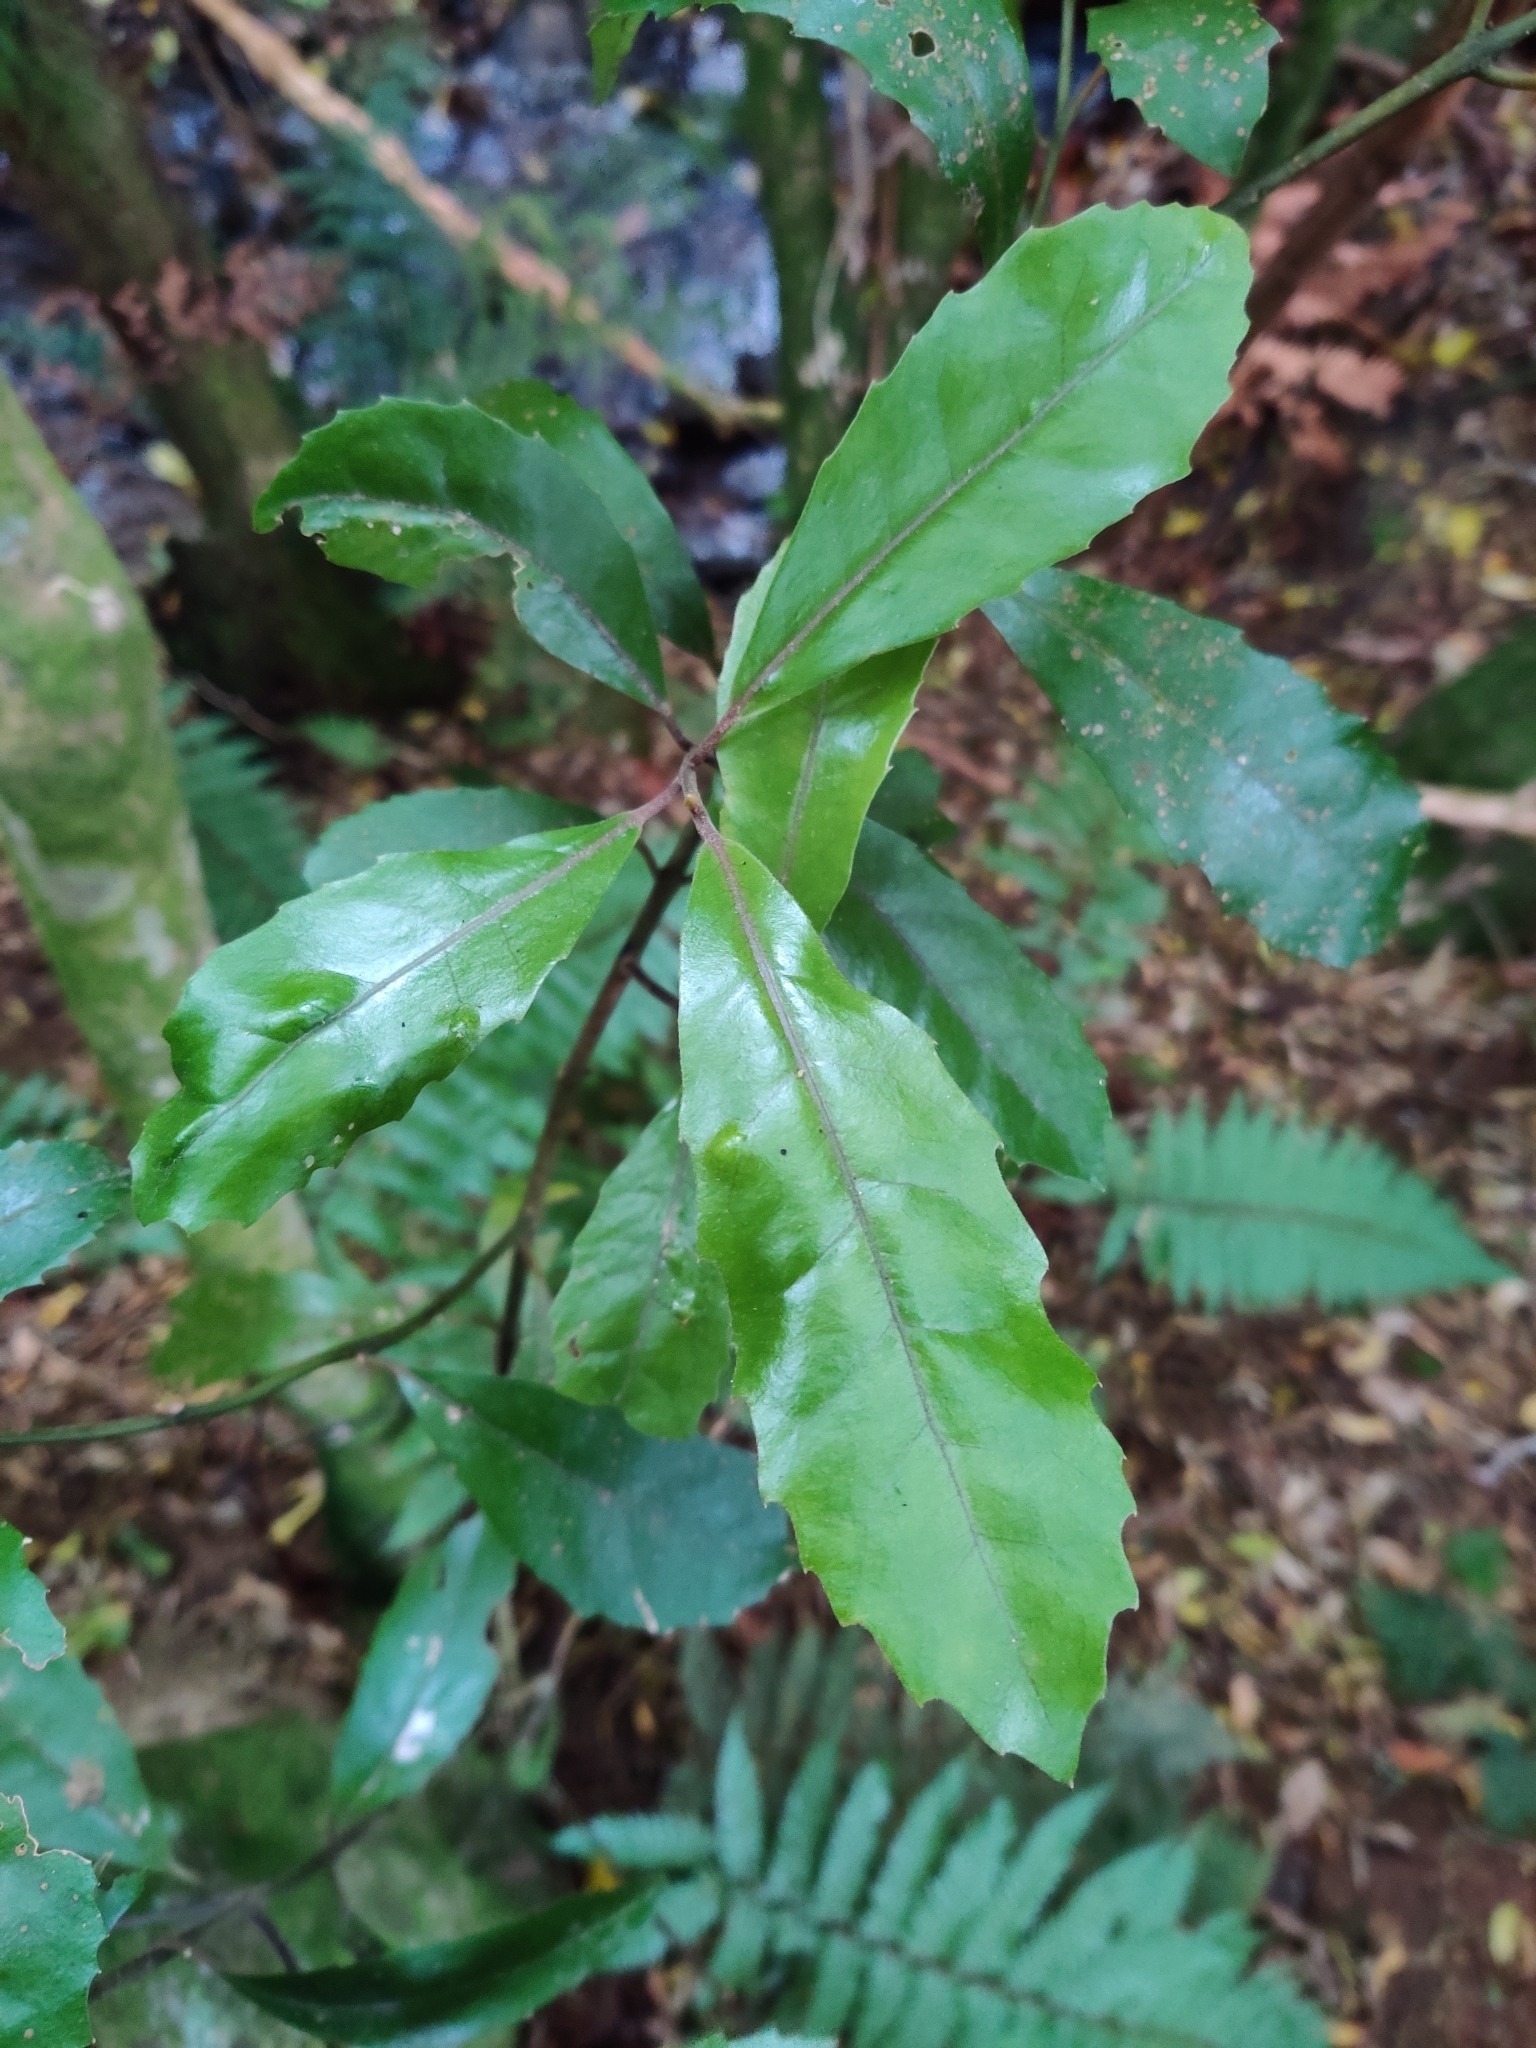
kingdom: Plantae
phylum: Tracheophyta
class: Magnoliopsida
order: Laurales
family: Monimiaceae
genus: Hedycarya
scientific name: Hedycarya arborea
